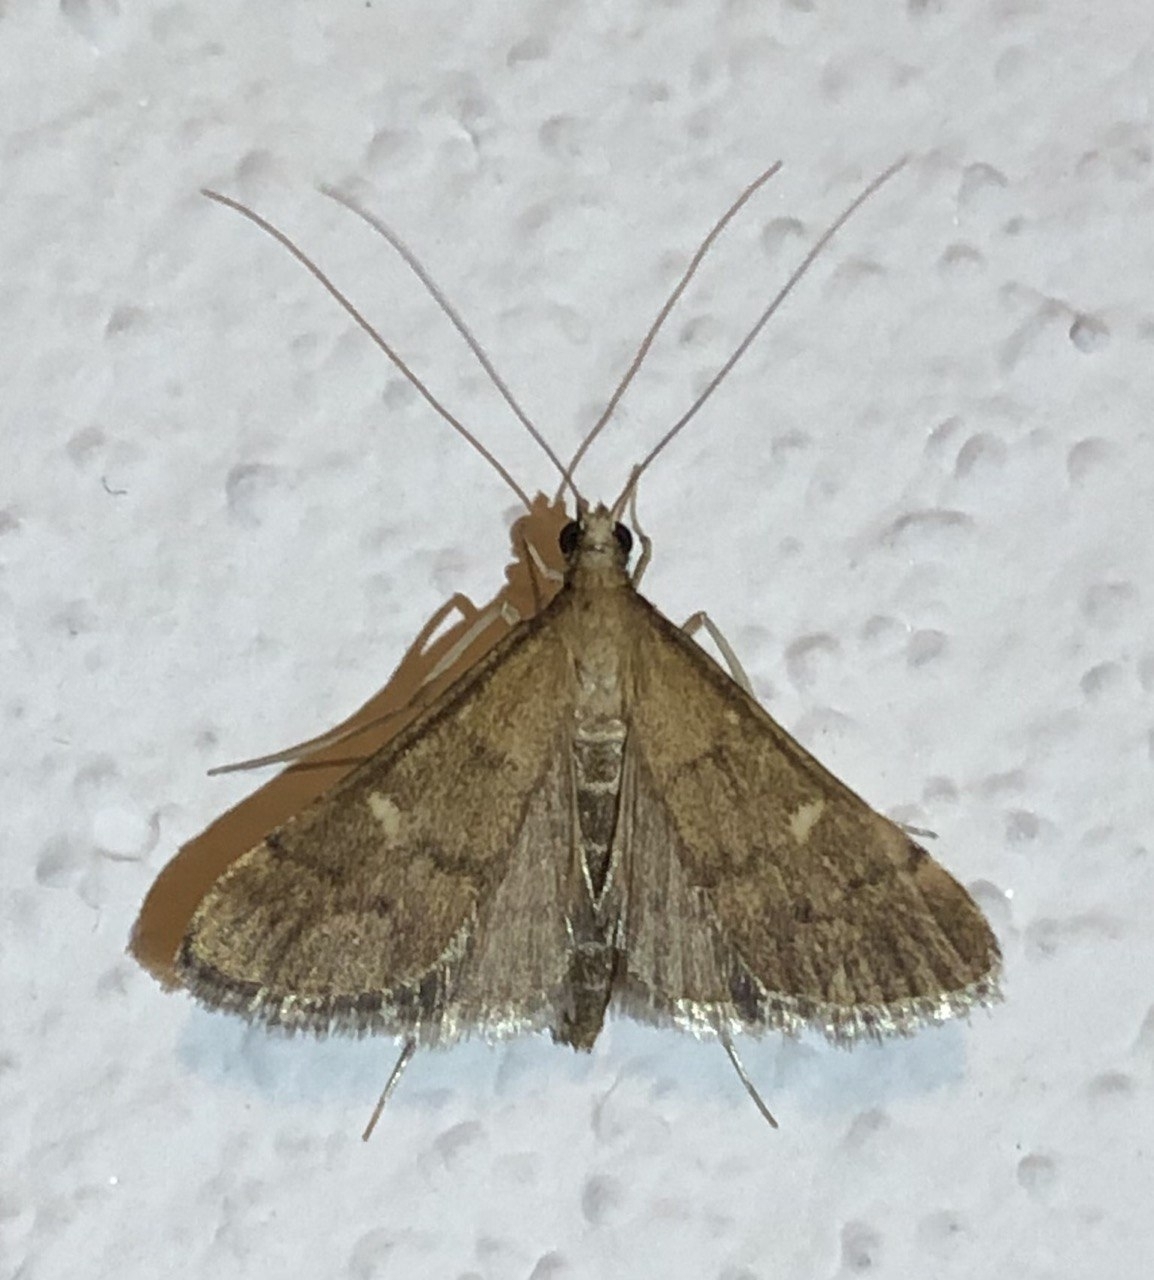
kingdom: Animalia
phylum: Arthropoda
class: Insecta
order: Lepidoptera
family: Crambidae
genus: Stenia
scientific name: Stenia Dolicharthria punctalis
